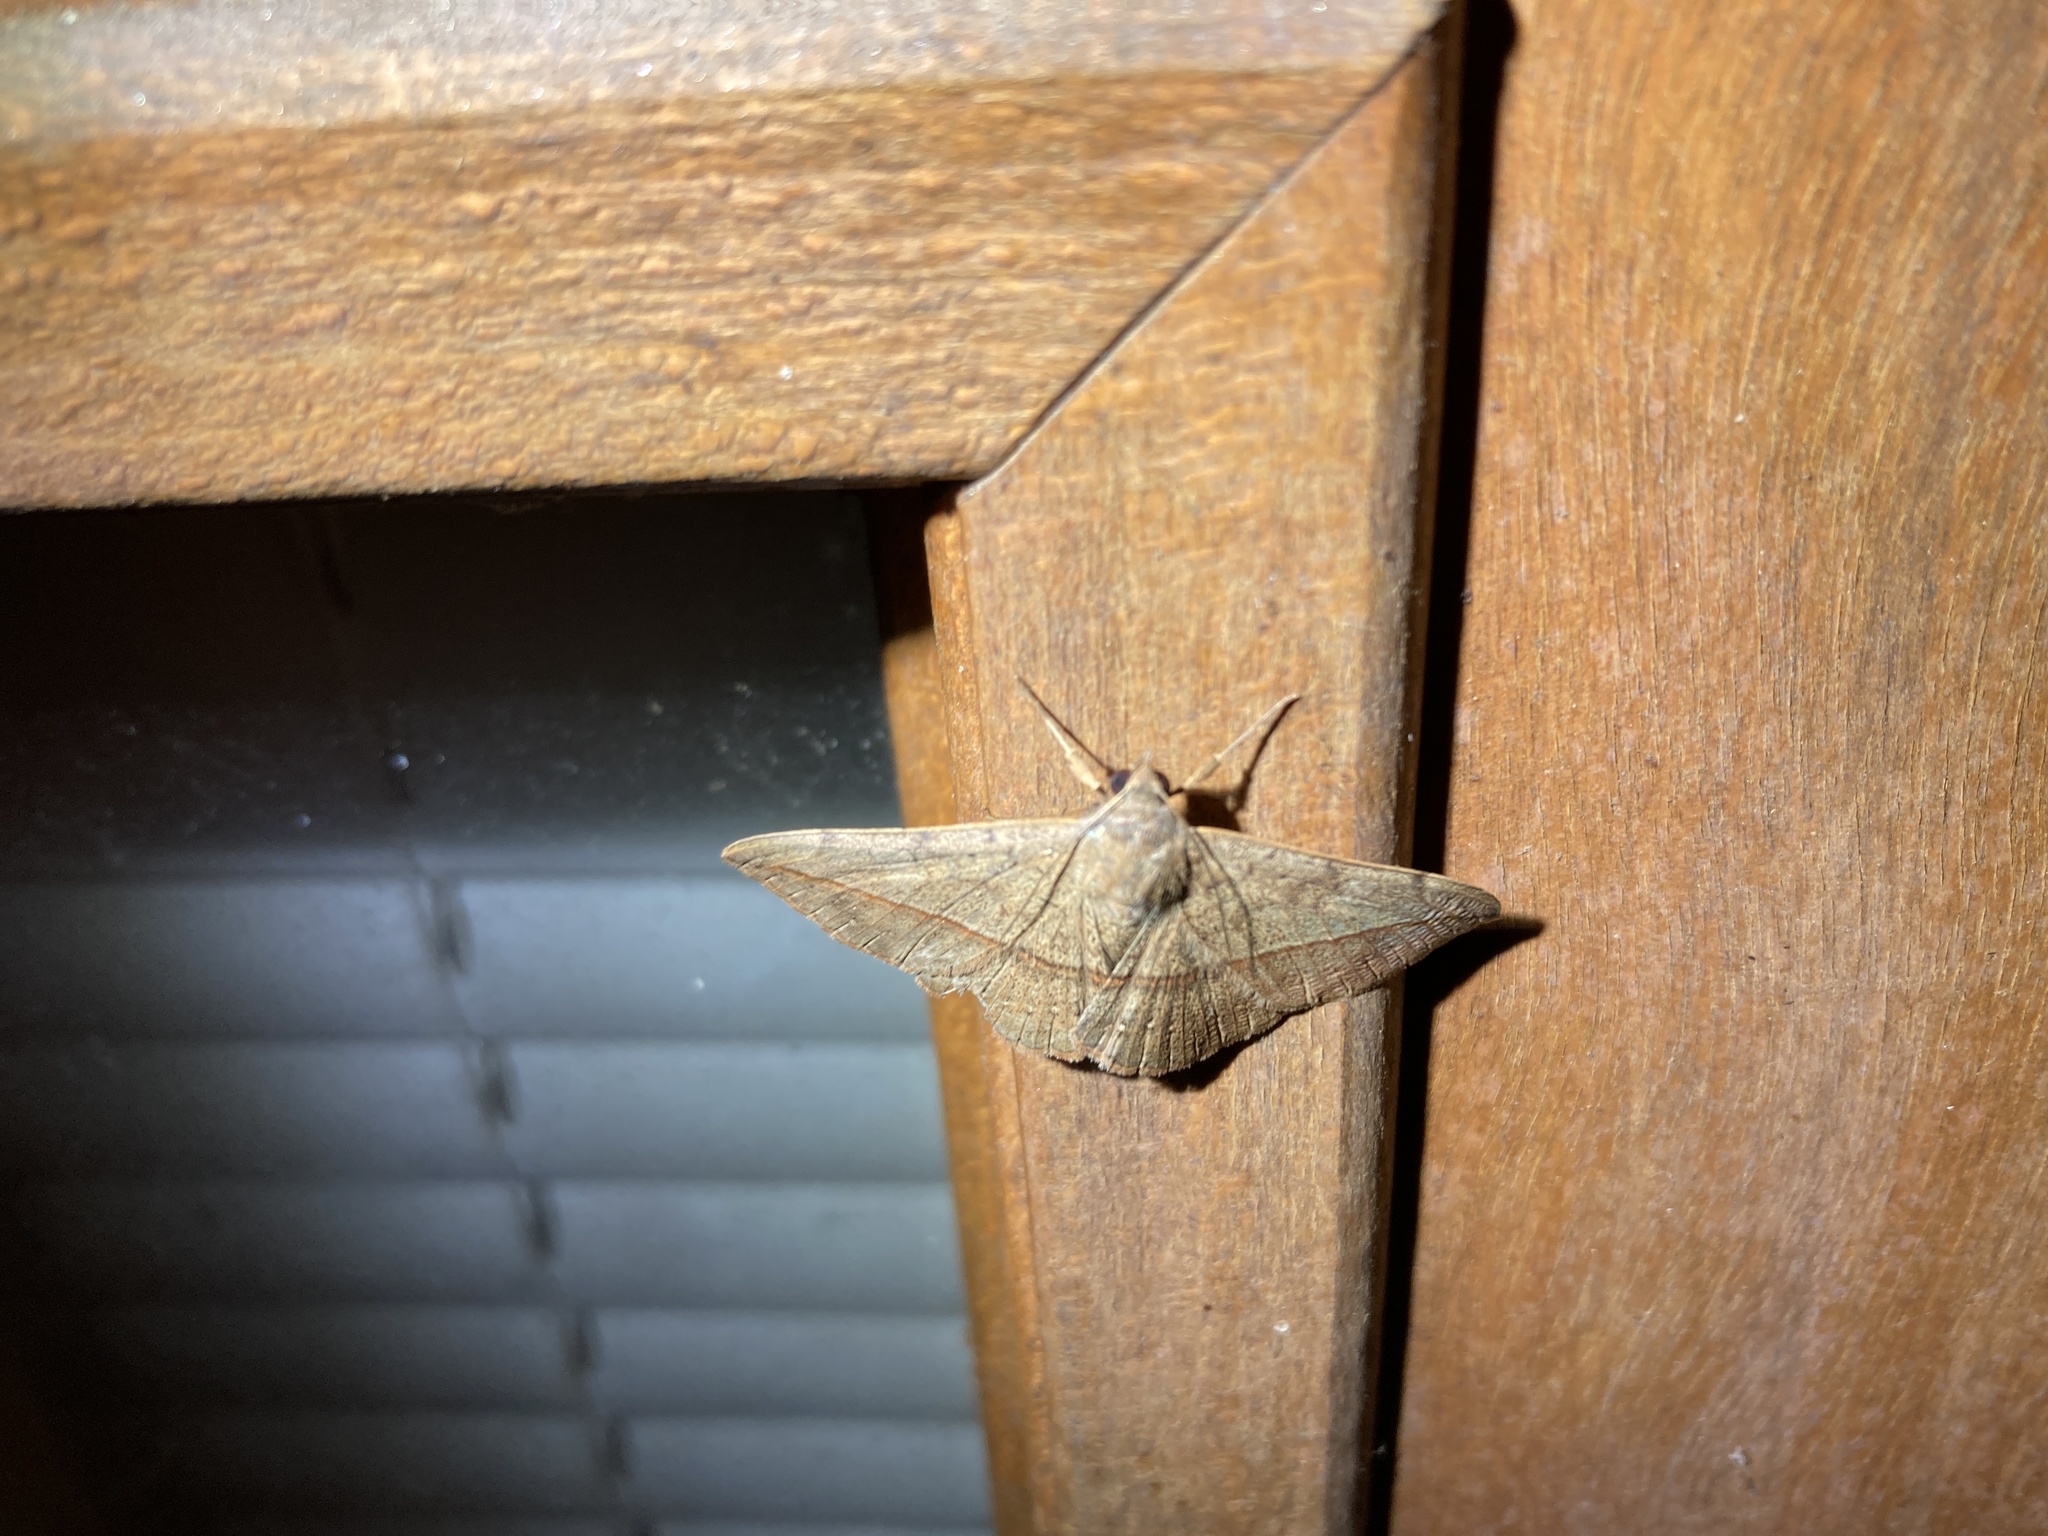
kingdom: Animalia
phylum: Arthropoda
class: Insecta
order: Lepidoptera
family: Erebidae
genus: Anticarsia
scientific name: Anticarsia gemmatalis
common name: Cutworm moth
